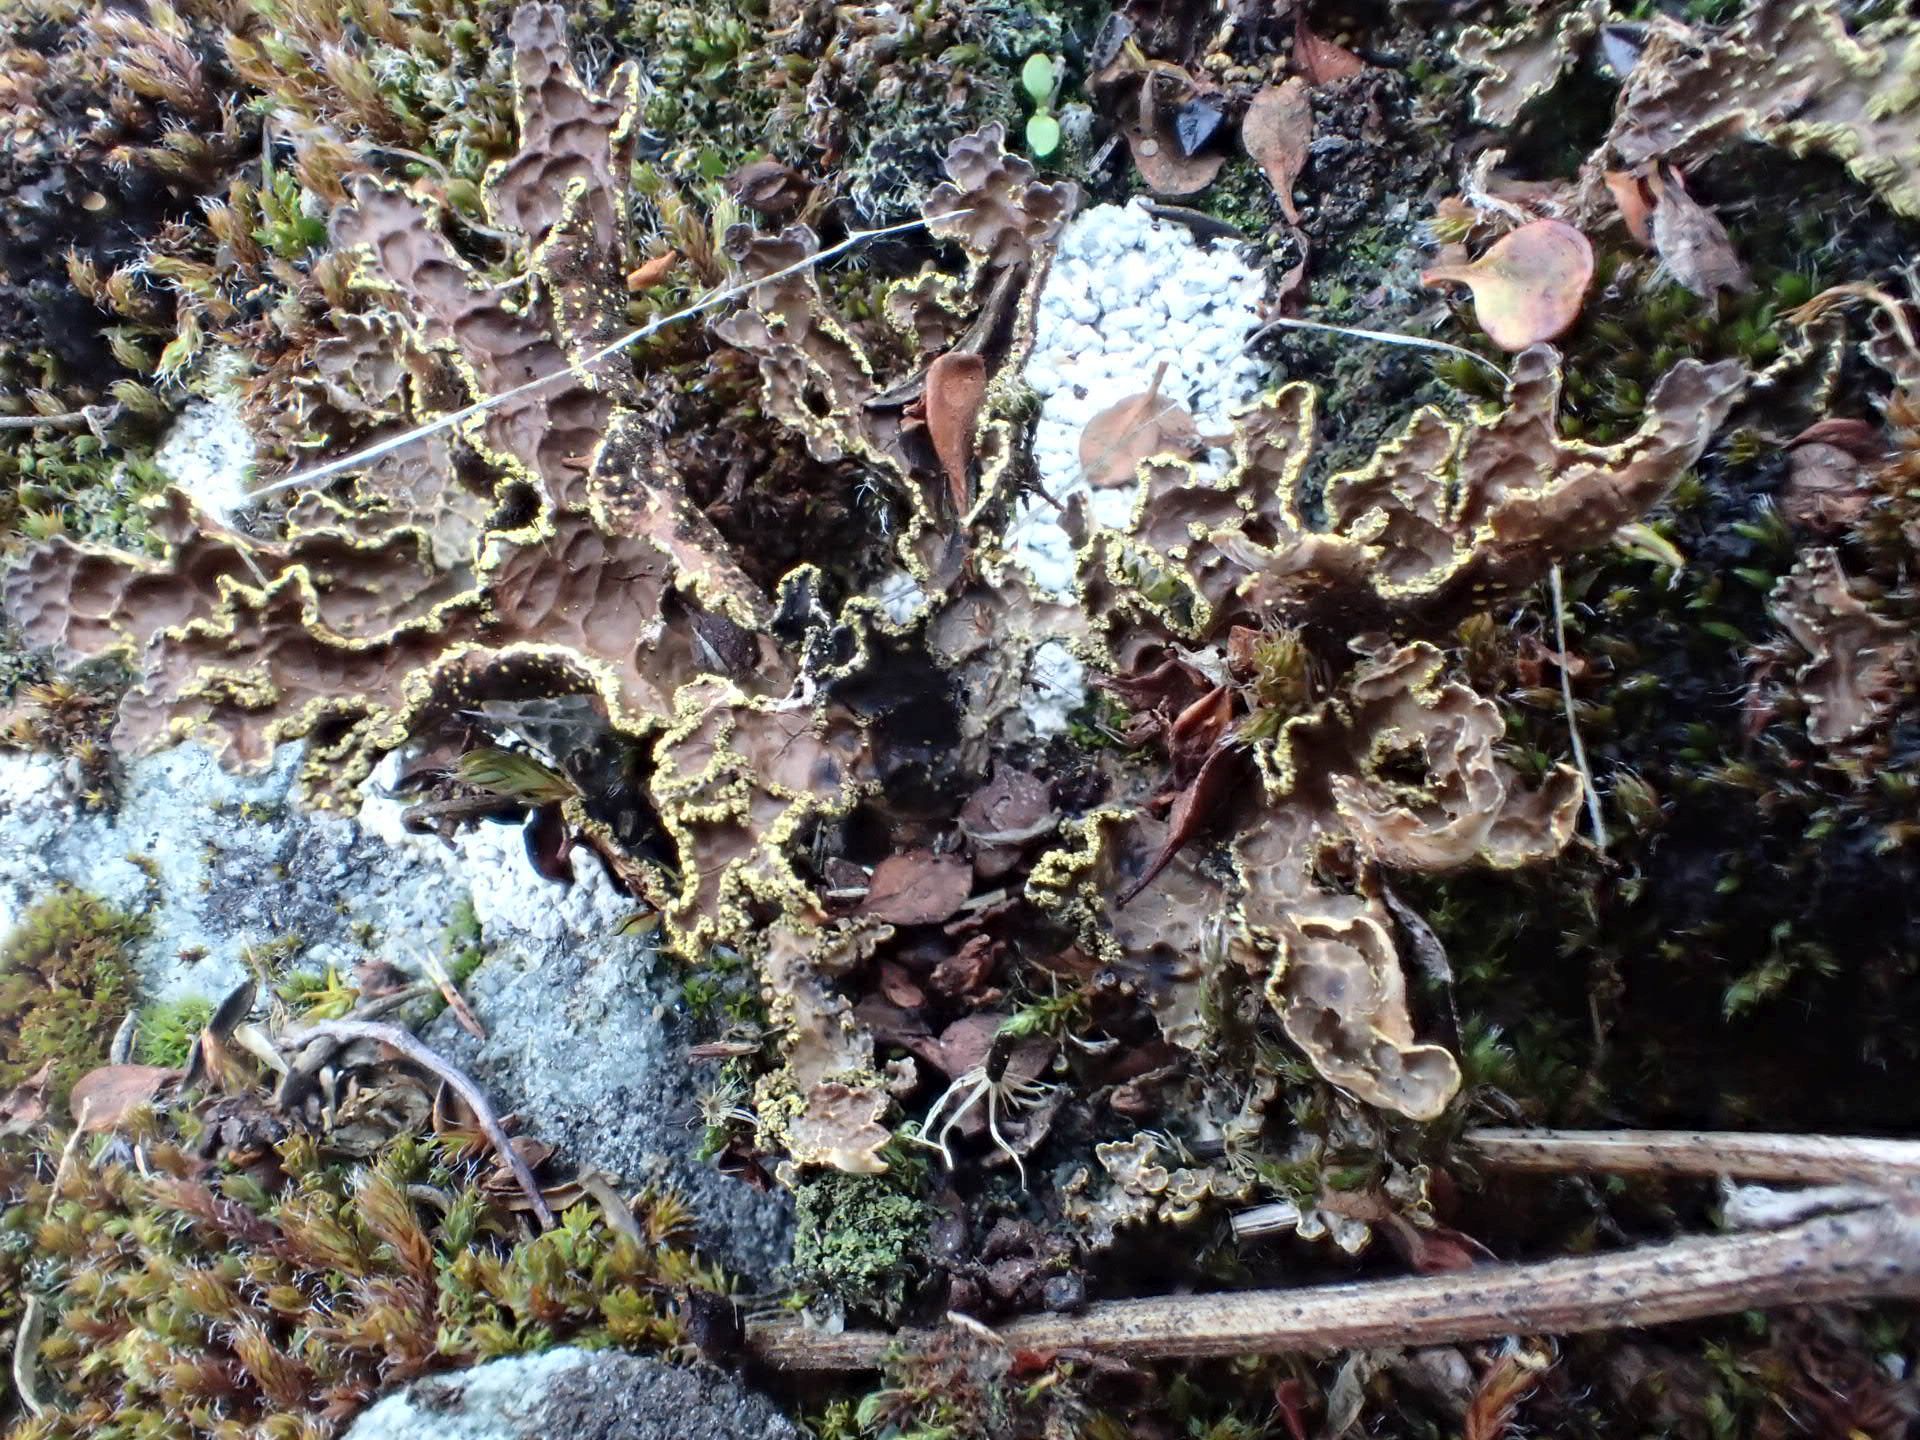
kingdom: Fungi
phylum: Ascomycota
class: Lecanoromycetes
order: Peltigerales
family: Lobariaceae
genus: Pseudocyphellaria
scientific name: Pseudocyphellaria crocata
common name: Golden specklebelly
